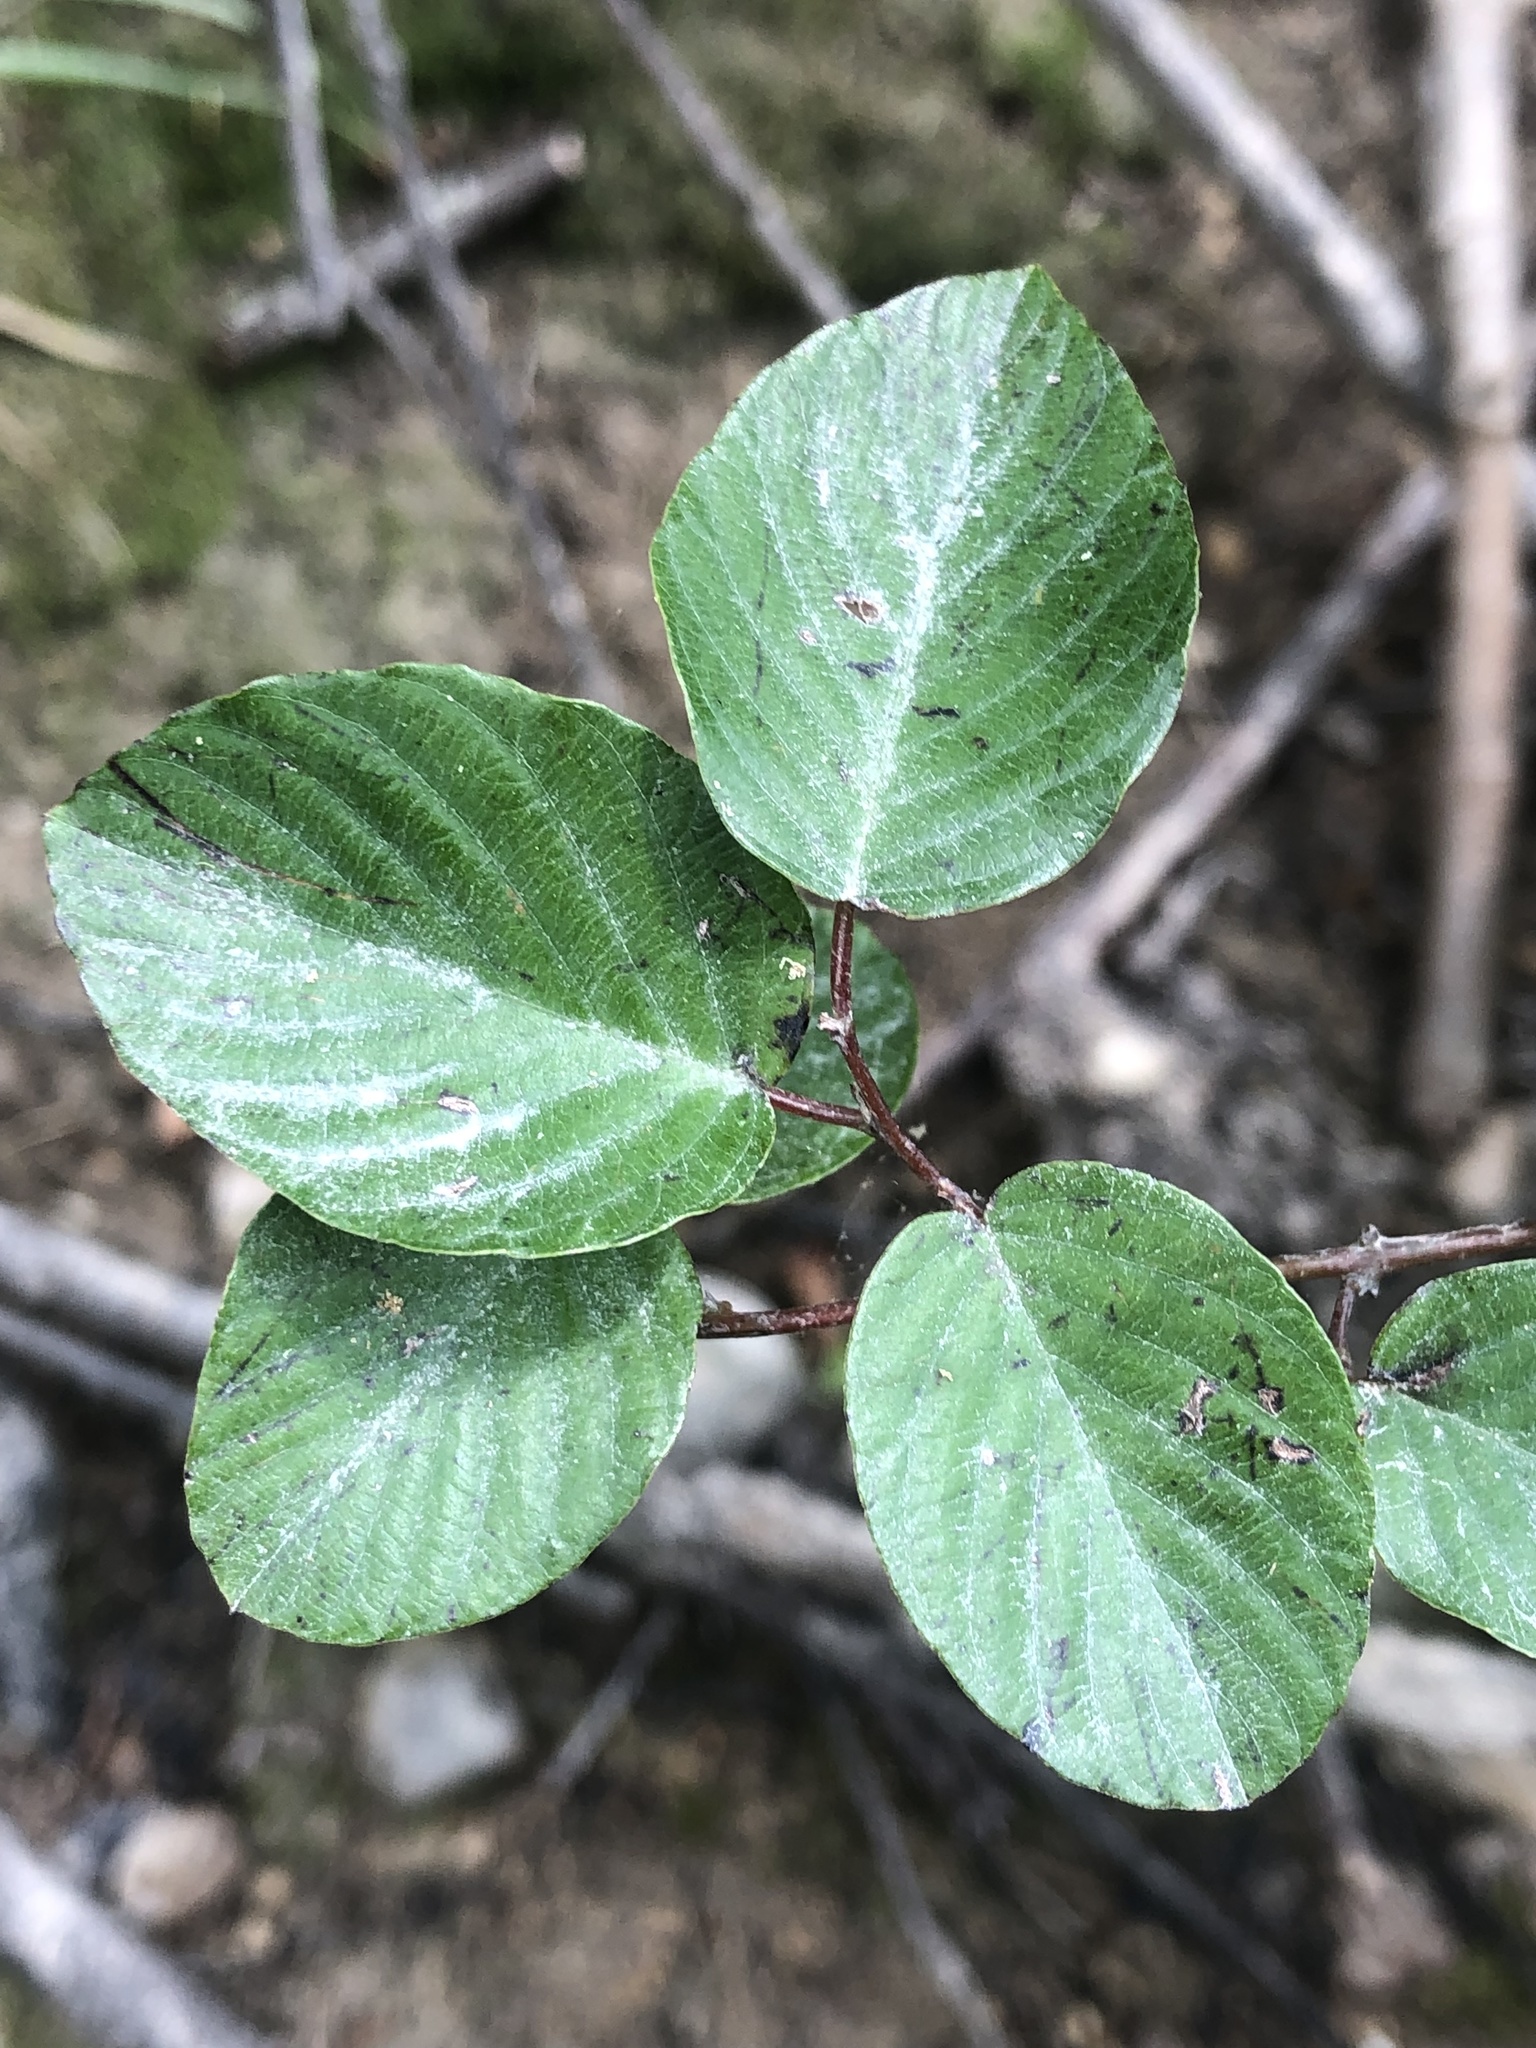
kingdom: Plantae
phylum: Tracheophyta
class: Magnoliopsida
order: Rosales
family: Rhamnaceae
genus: Berchemia
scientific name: Berchemia scandens
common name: Supplejack
